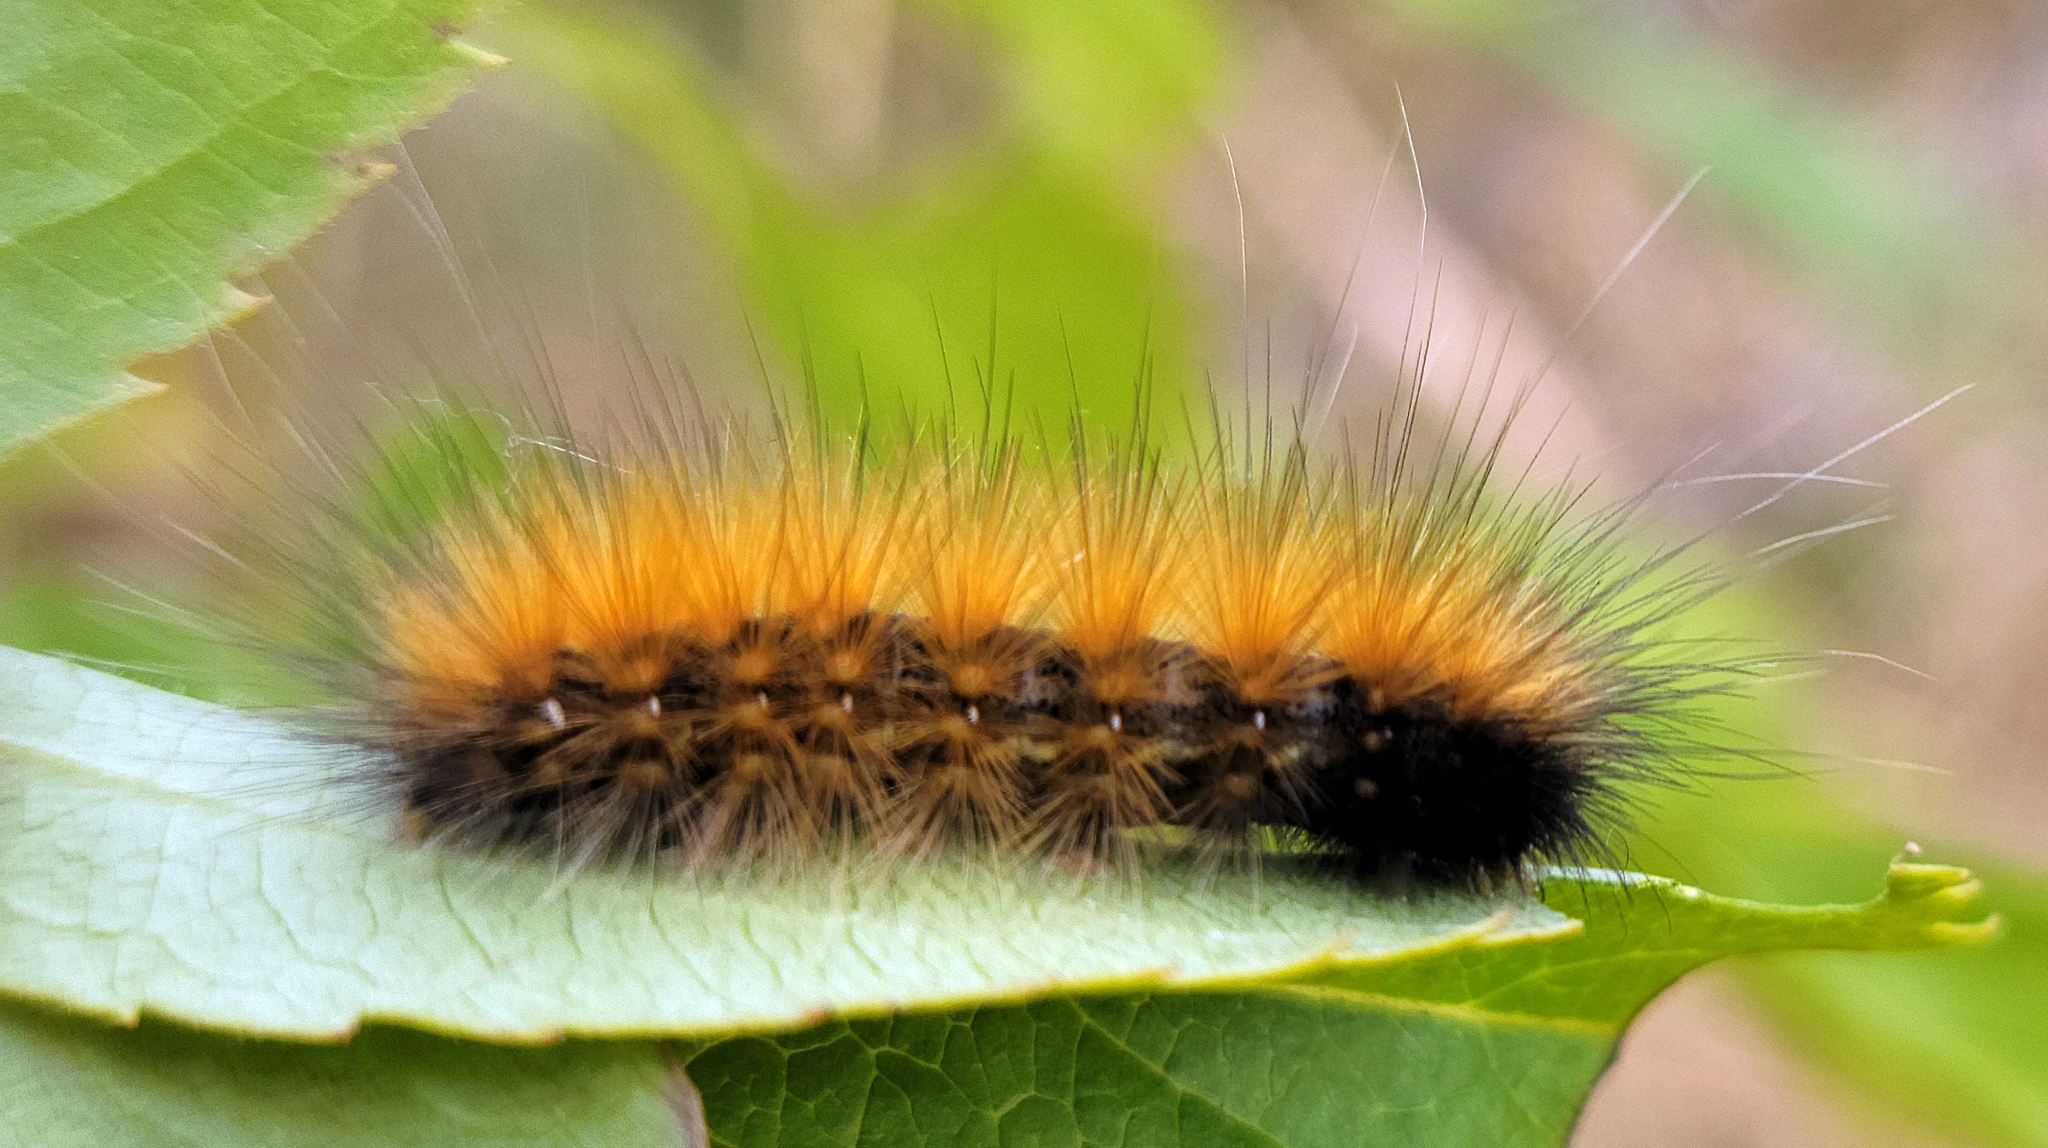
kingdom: Animalia
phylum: Arthropoda
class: Insecta
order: Lepidoptera
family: Erebidae
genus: Spilosoma
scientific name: Spilosoma virginica
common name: Virginia tiger moth
